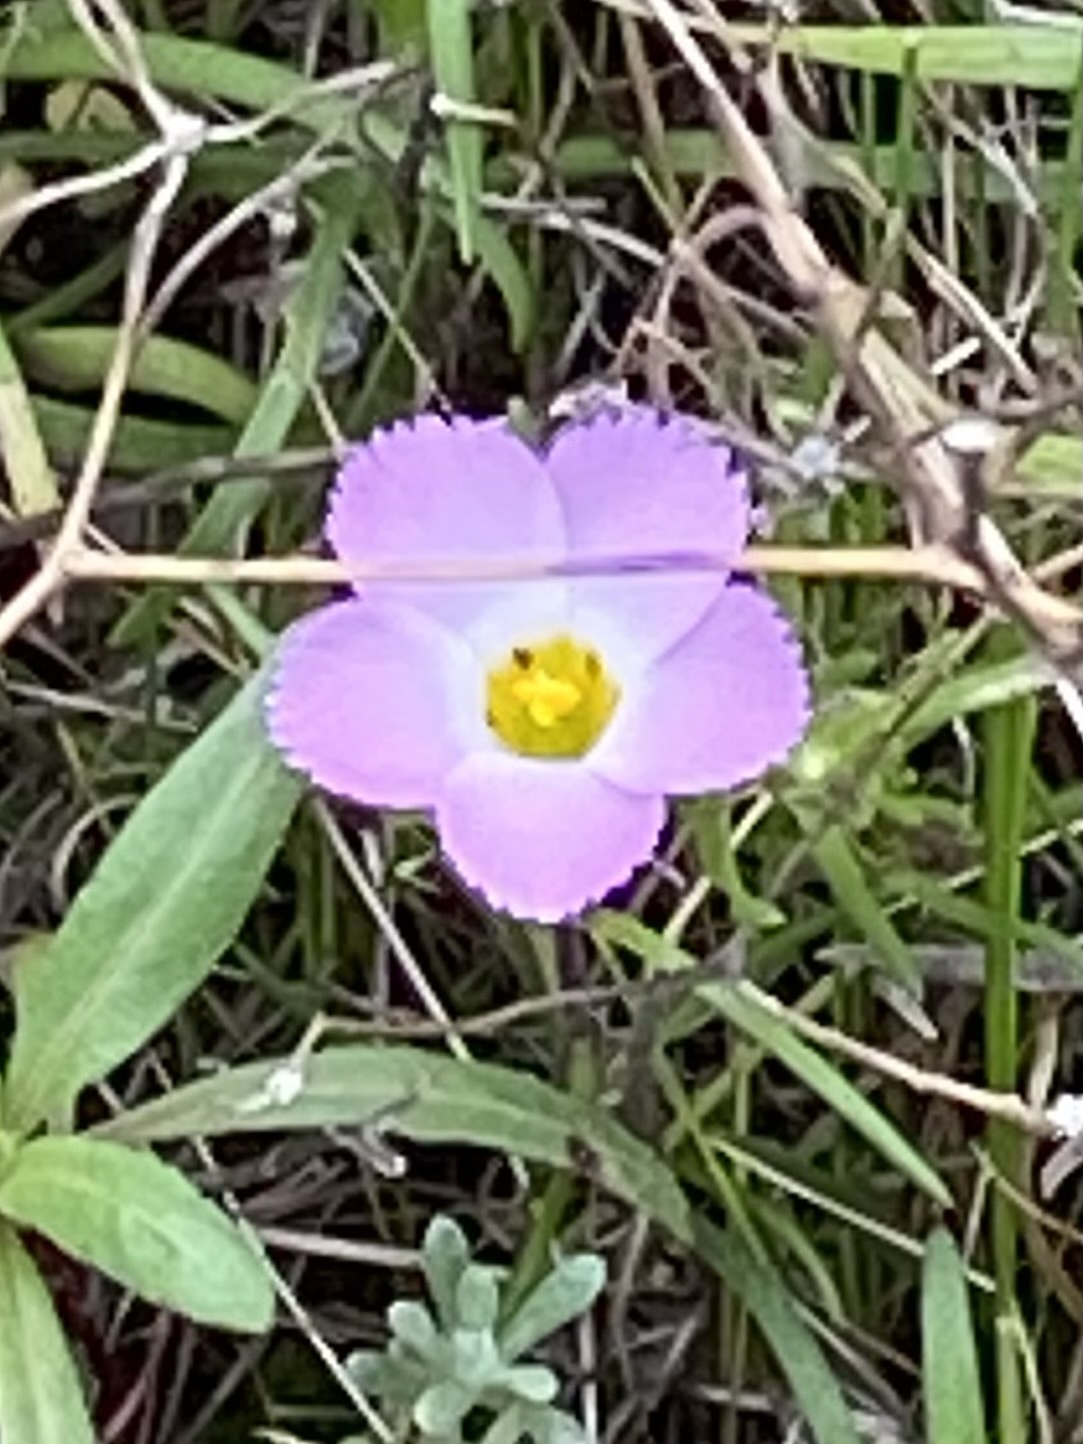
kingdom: Plantae
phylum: Tracheophyta
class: Magnoliopsida
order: Ericales
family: Polemoniaceae
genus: Linanthus
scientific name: Linanthus dianthiflorus
